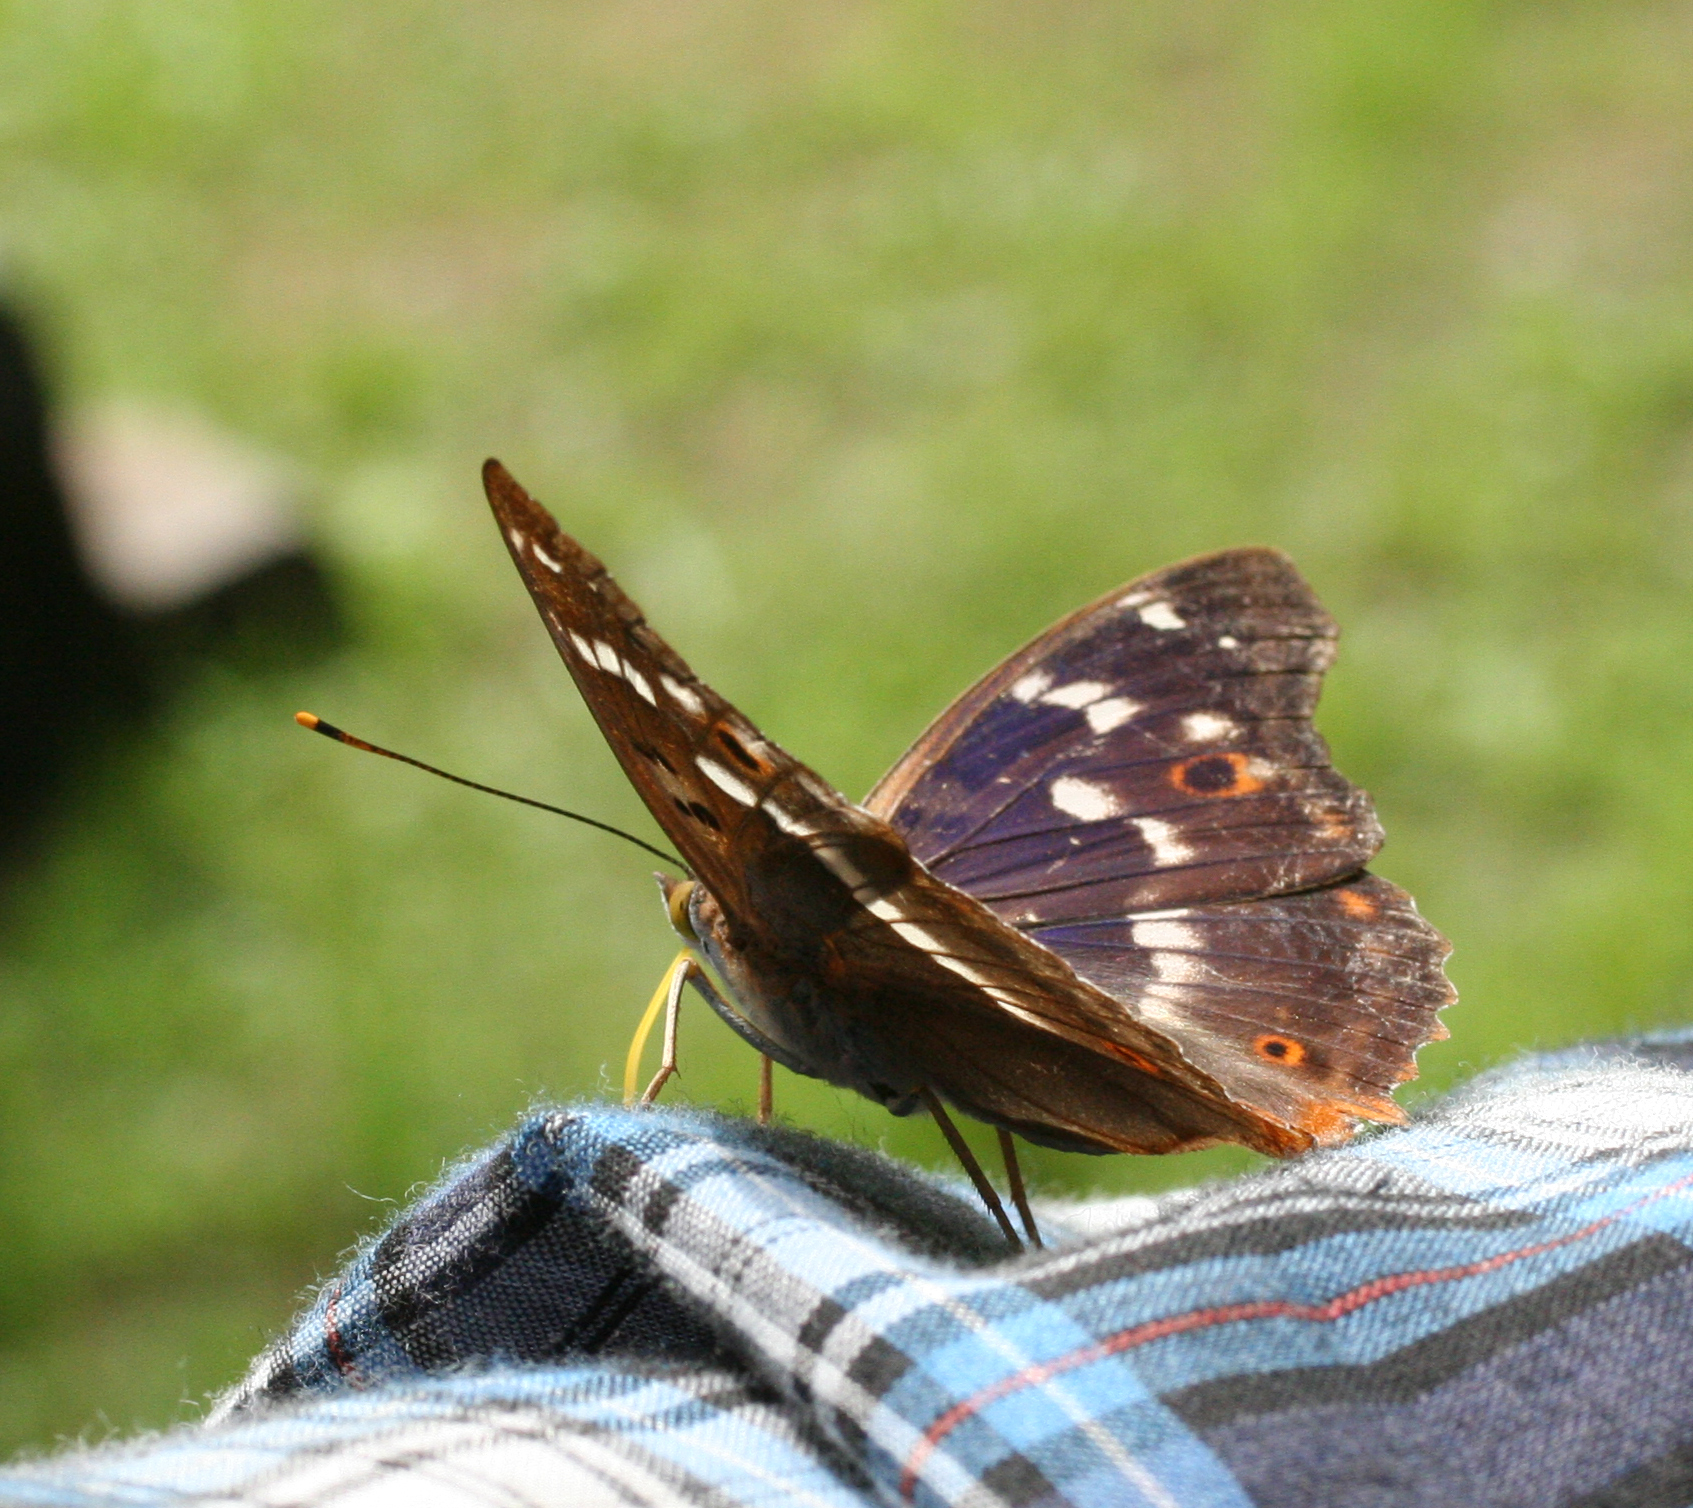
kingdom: Animalia
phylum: Arthropoda
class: Insecta
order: Lepidoptera
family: Nymphalidae
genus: Apatura
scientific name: Apatura ilia
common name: Lesser purple emperor
